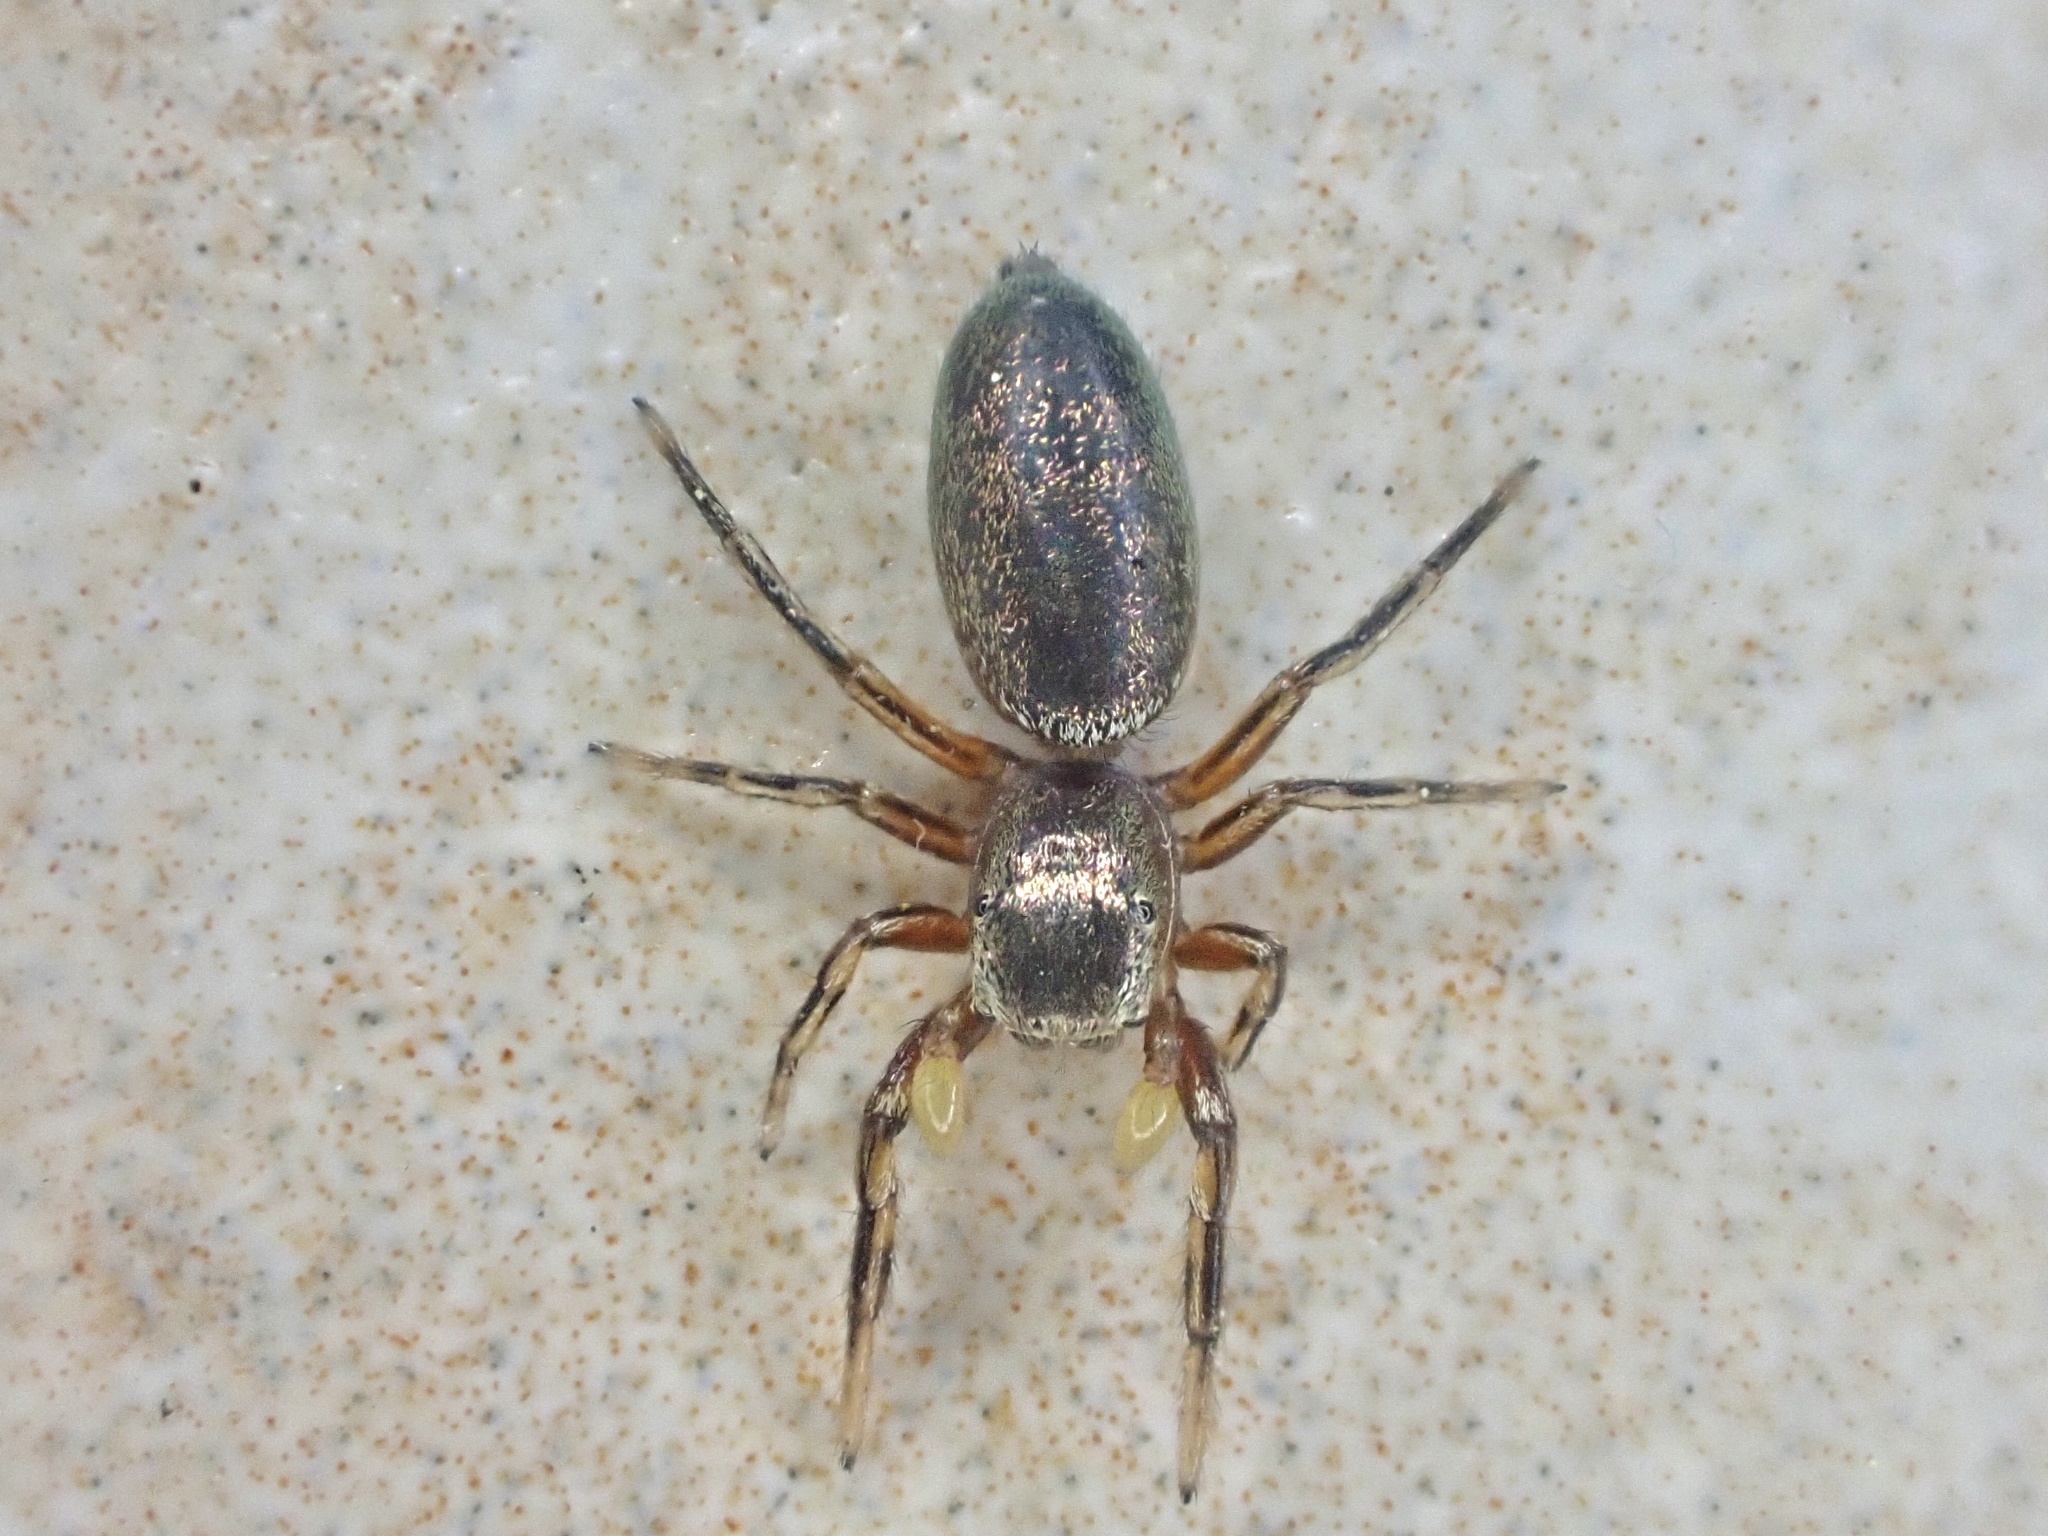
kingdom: Animalia
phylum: Arthropoda
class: Arachnida
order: Araneae
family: Salticidae
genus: Tutelina
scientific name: Tutelina elegans
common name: Thin-spined jumping spider
